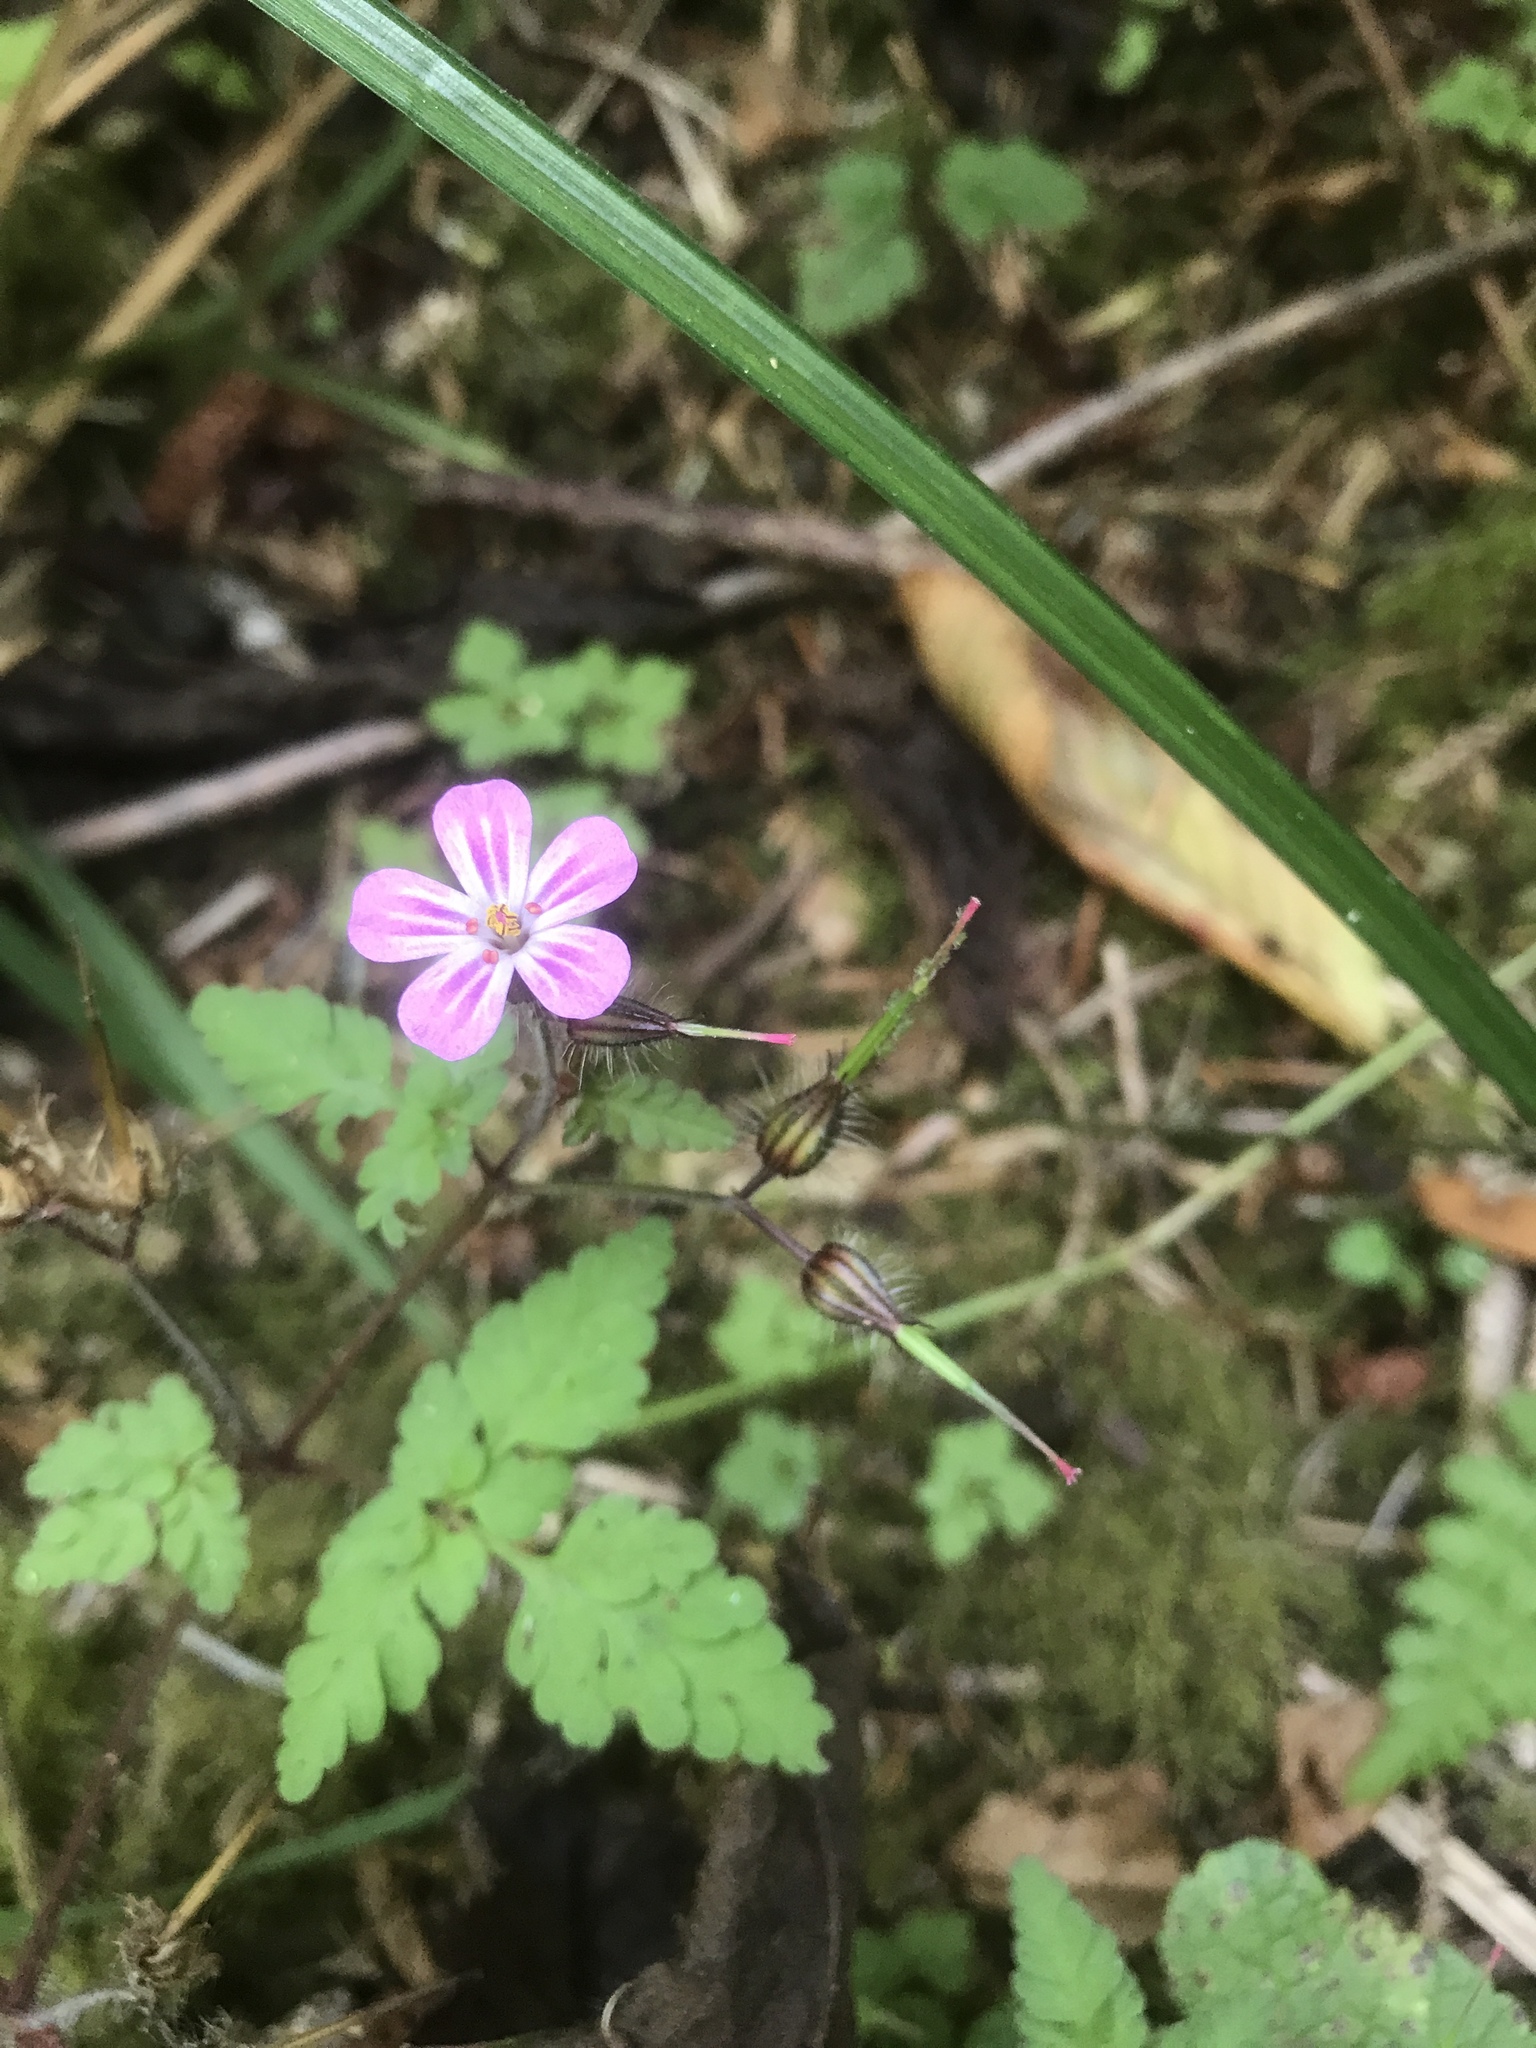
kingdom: Plantae
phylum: Tracheophyta
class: Magnoliopsida
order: Geraniales
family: Geraniaceae
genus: Geranium
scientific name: Geranium robertianum
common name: Herb-robert
